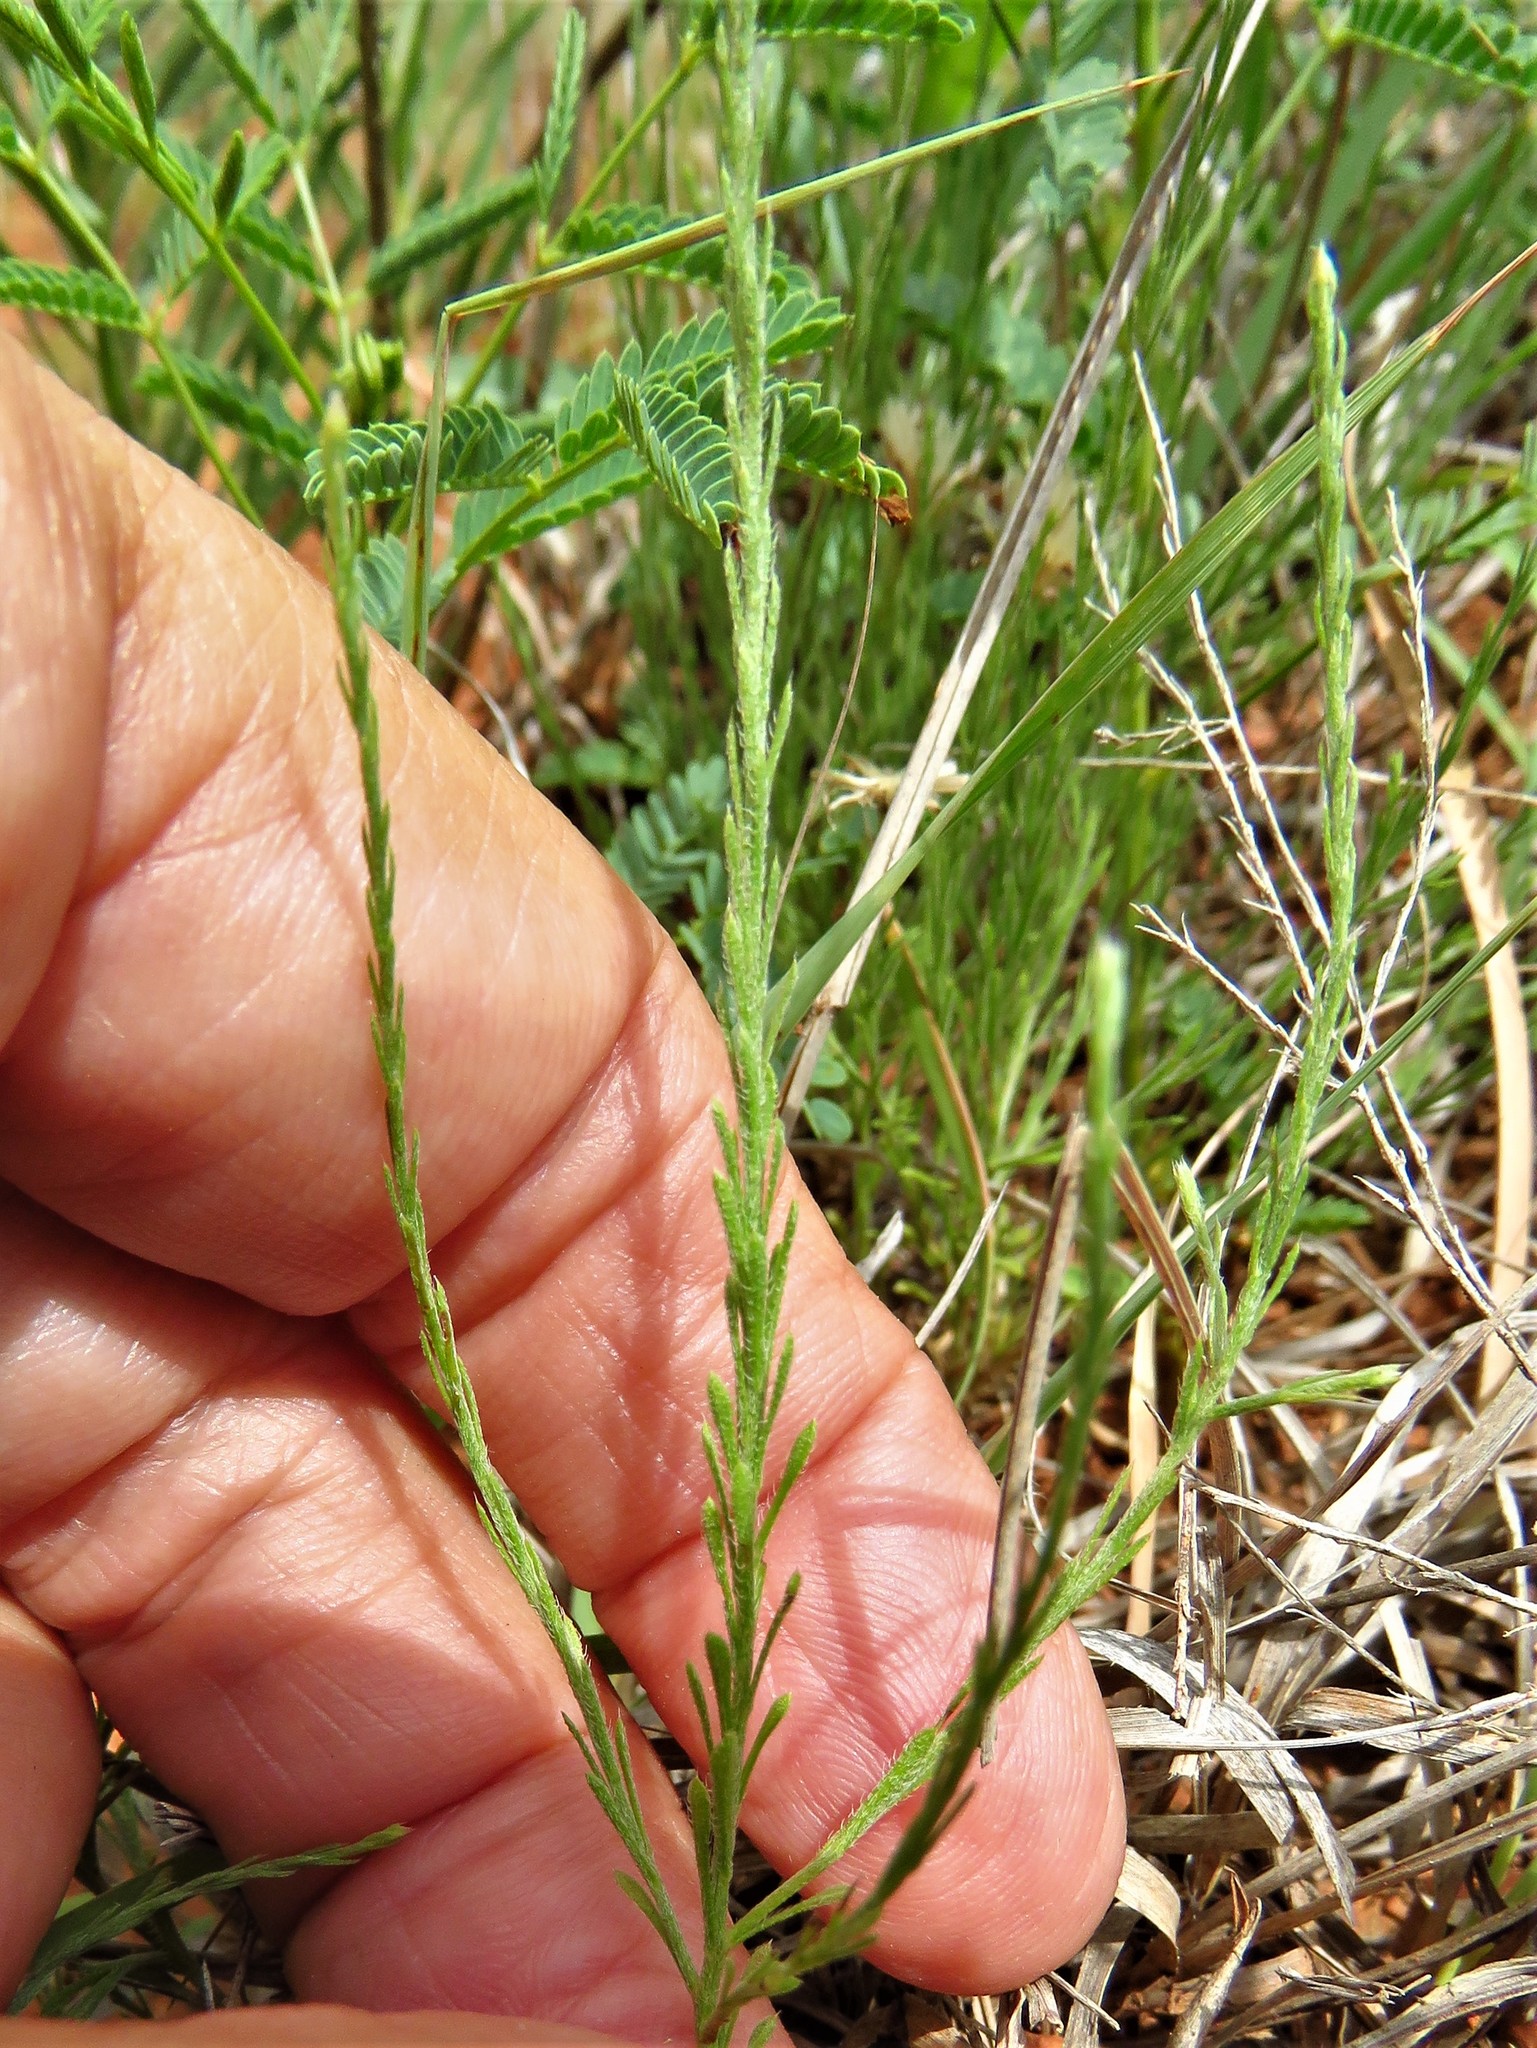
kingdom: Plantae
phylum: Tracheophyta
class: Magnoliopsida
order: Asterales
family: Asteraceae
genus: Chaetopappa
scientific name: Chaetopappa ericoides
